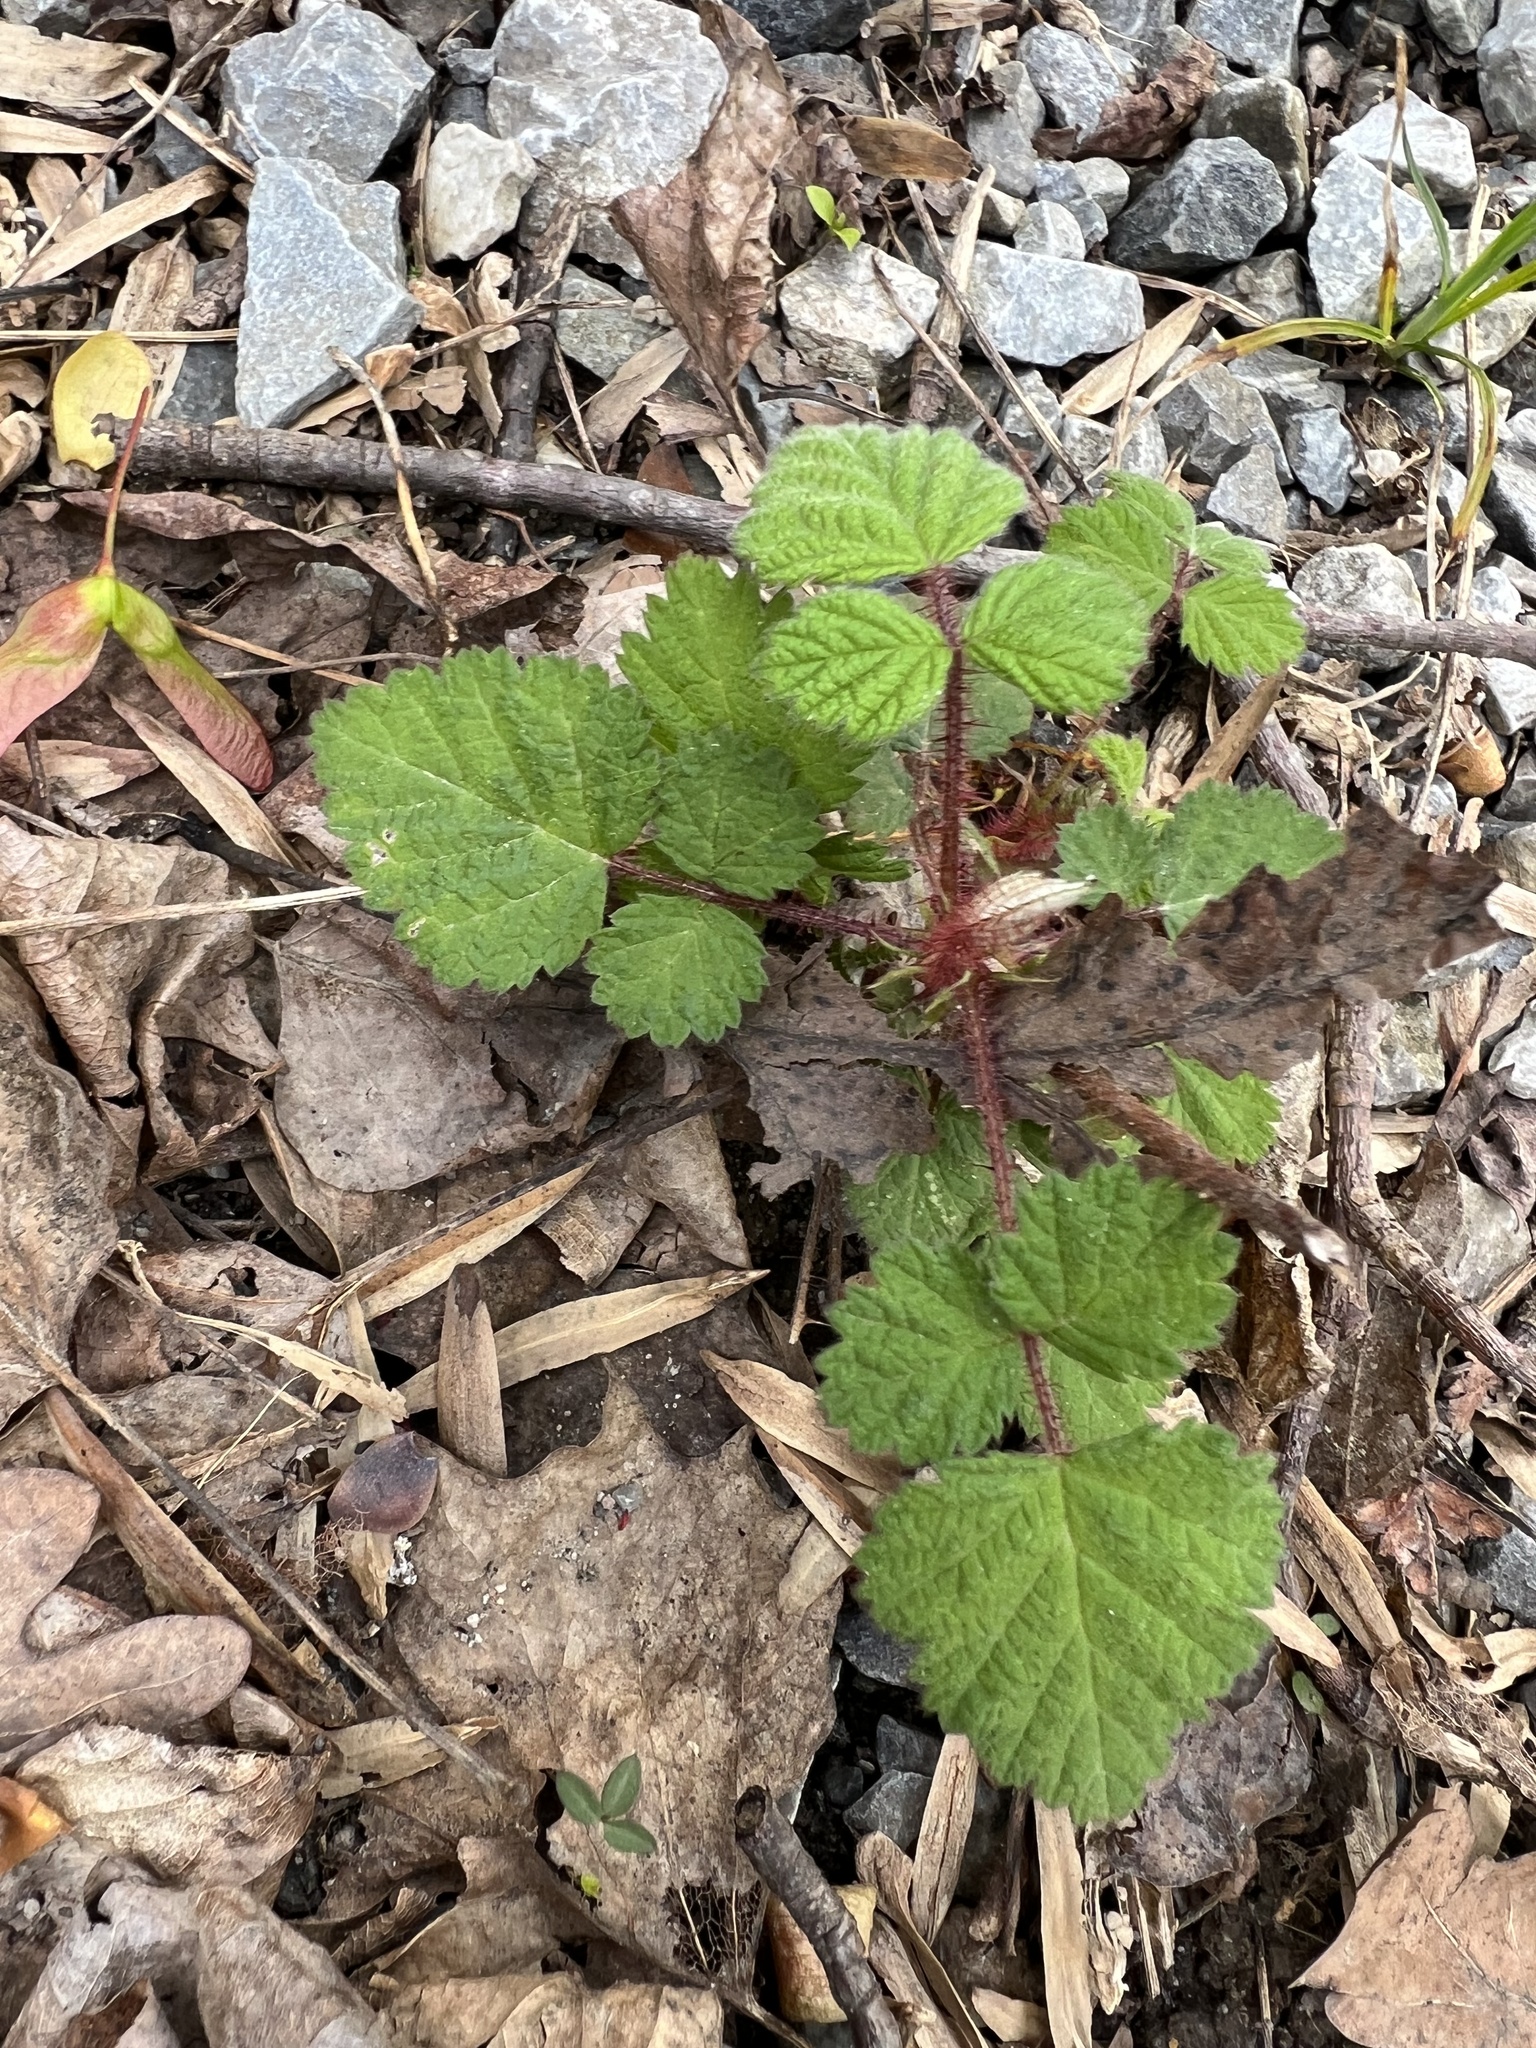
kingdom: Plantae
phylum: Tracheophyta
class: Magnoliopsida
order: Rosales
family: Rosaceae
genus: Rubus
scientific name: Rubus phoenicolasius
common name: Japanese wineberry
